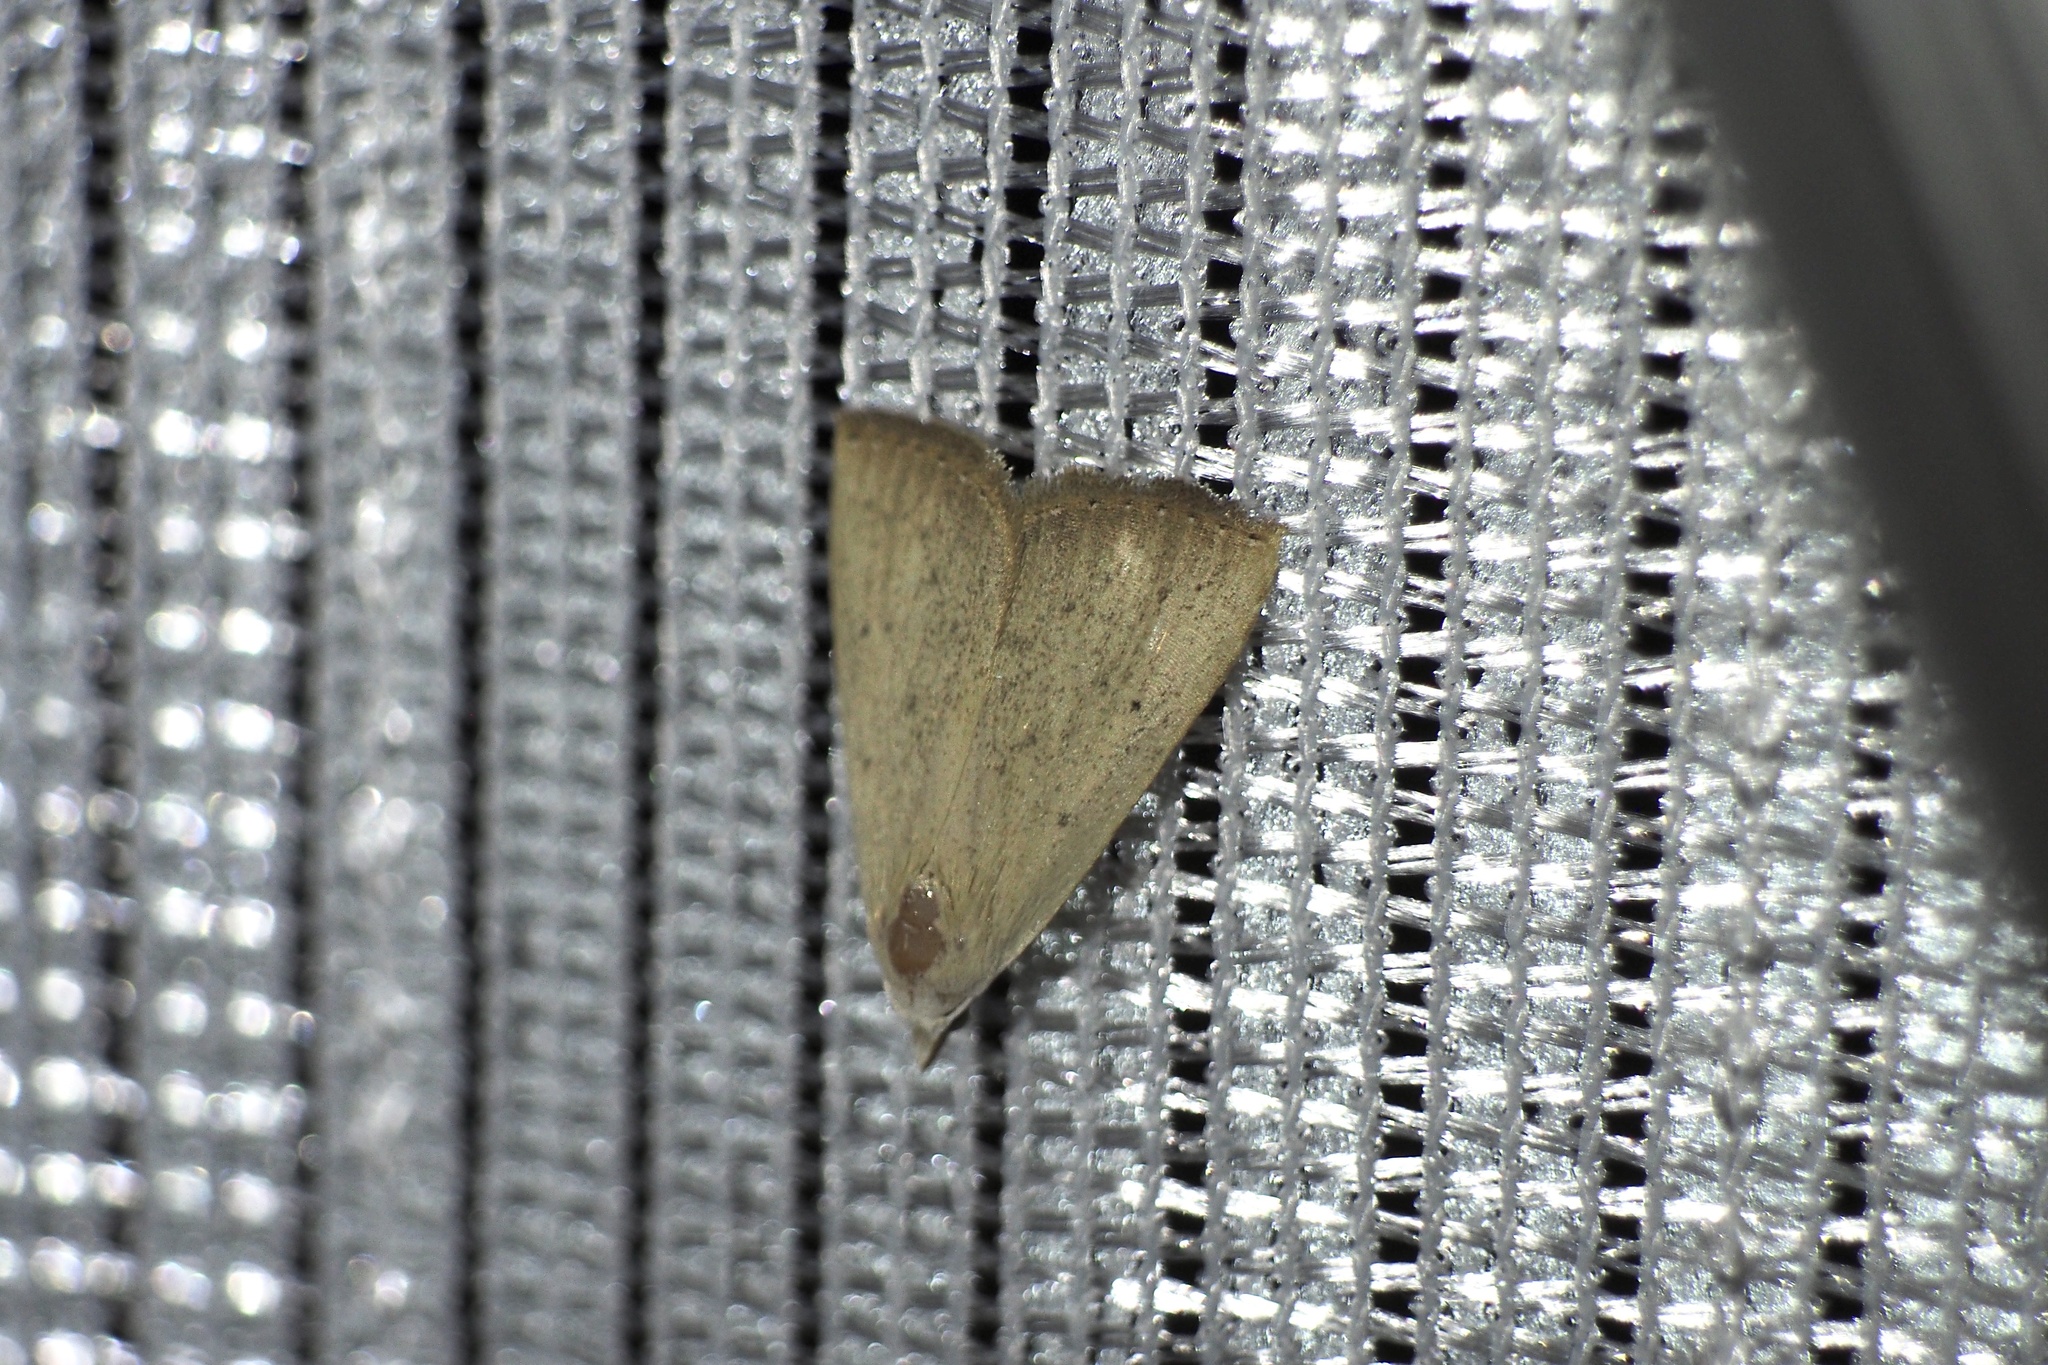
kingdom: Animalia
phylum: Arthropoda
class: Insecta
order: Lepidoptera
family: Erebidae
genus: Rivula
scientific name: Rivula aequalis
